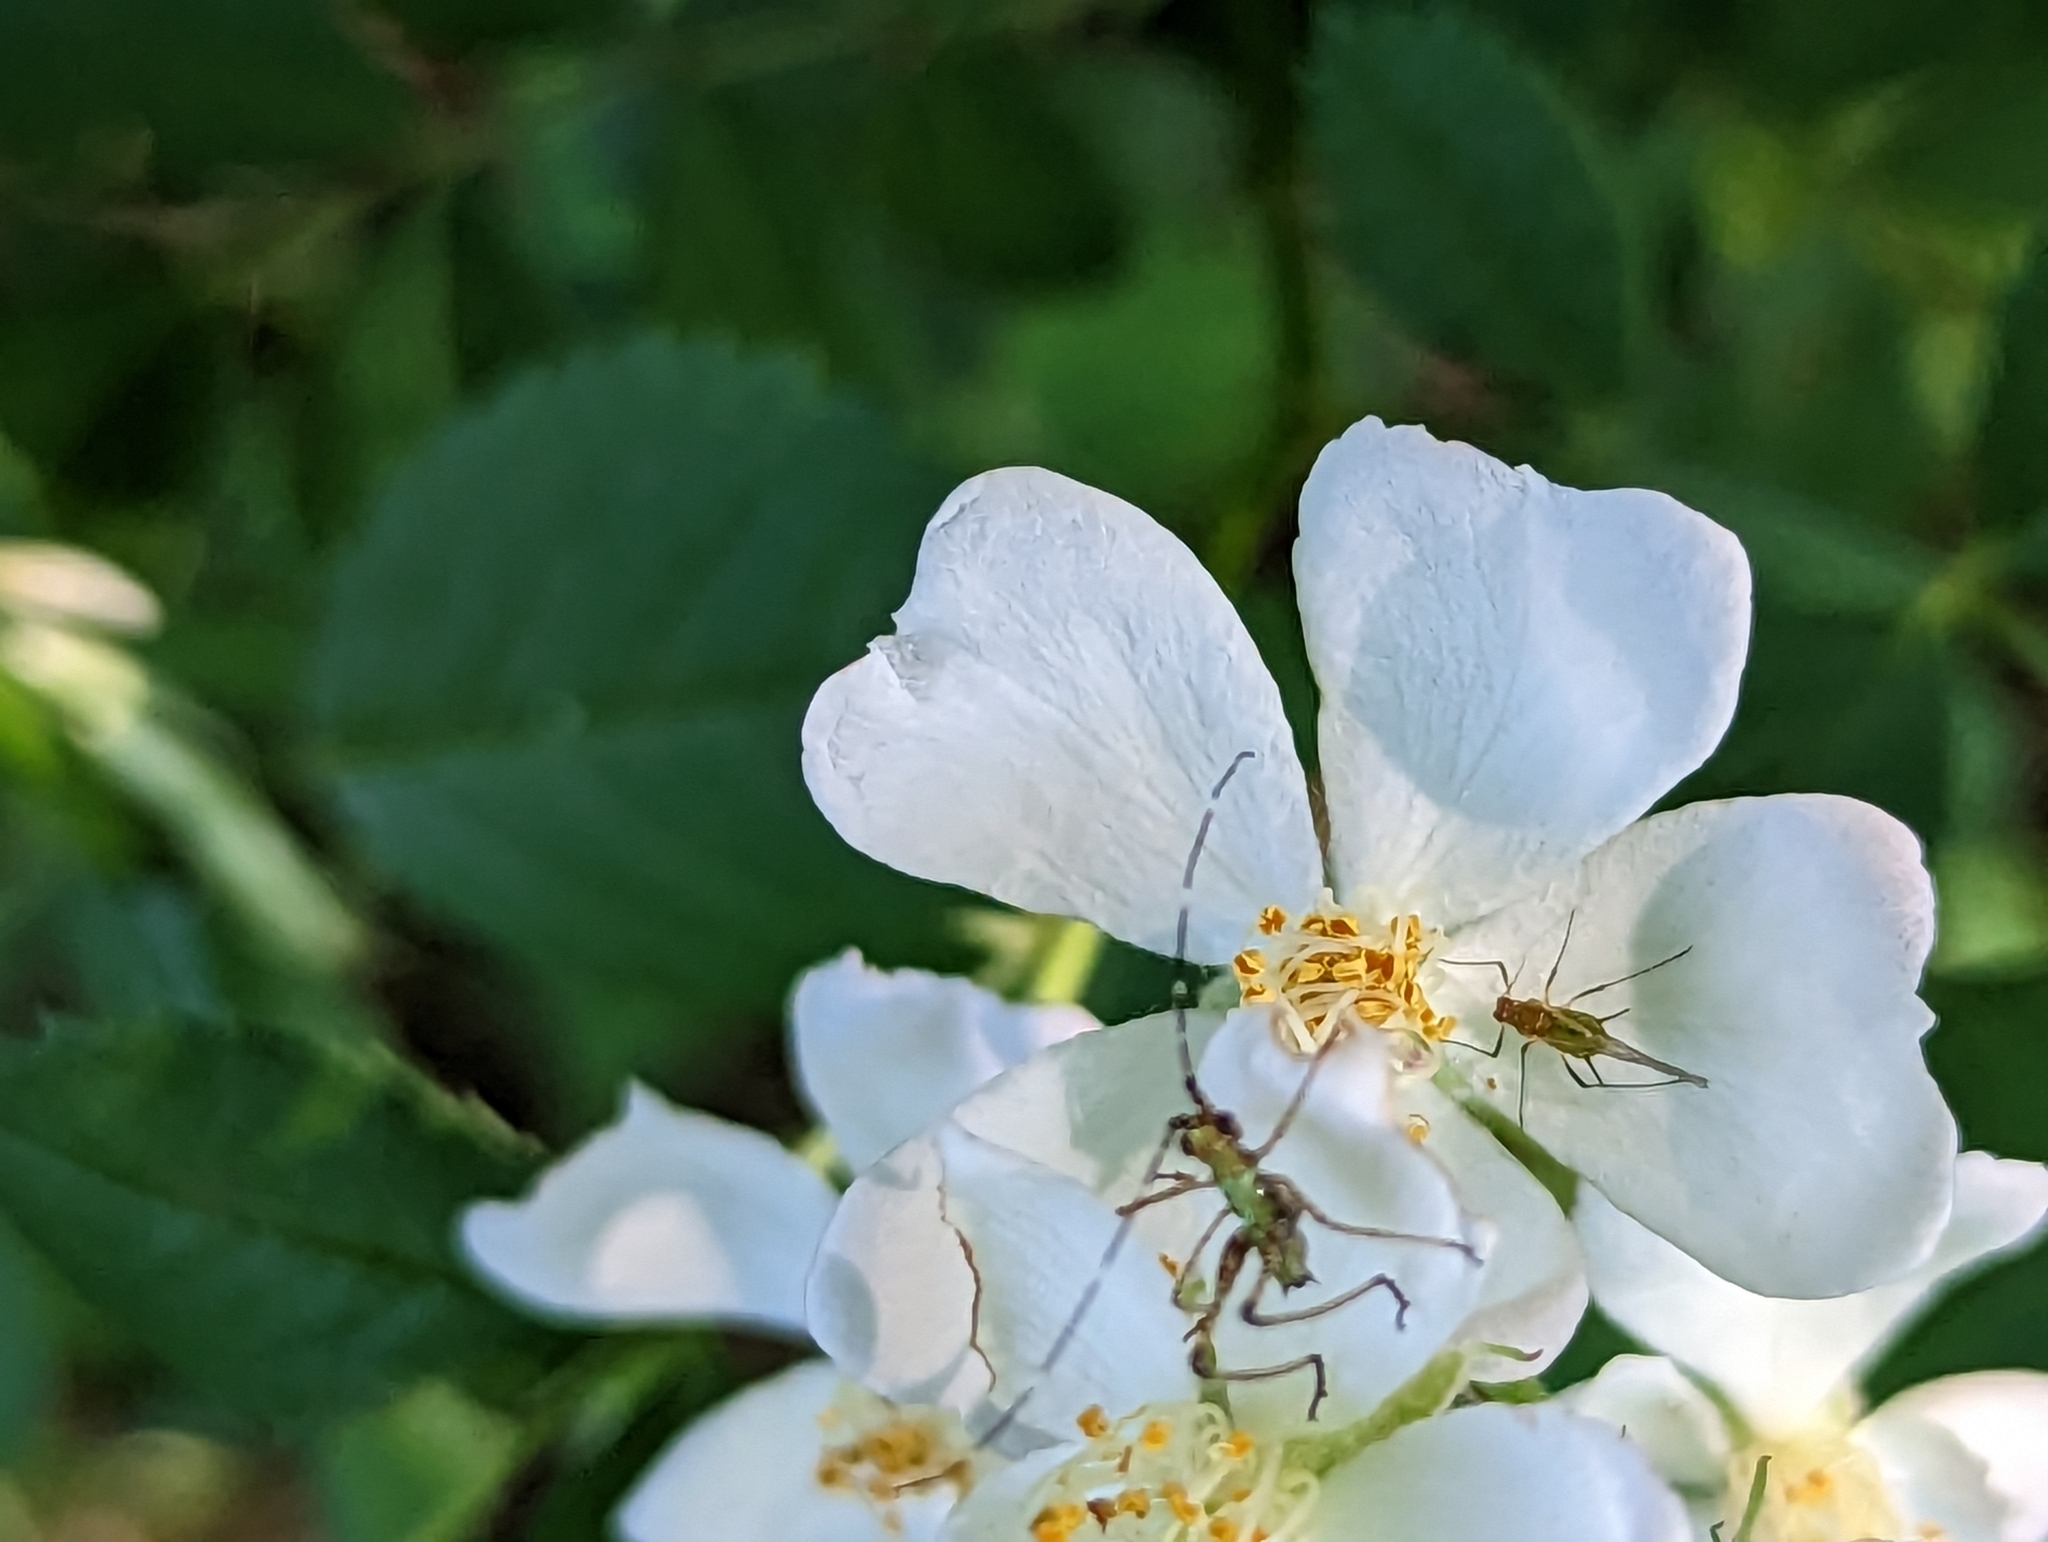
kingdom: Plantae
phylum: Tracheophyta
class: Magnoliopsida
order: Rosales
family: Rosaceae
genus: Rosa
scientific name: Rosa multiflora
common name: Multiflora rose
